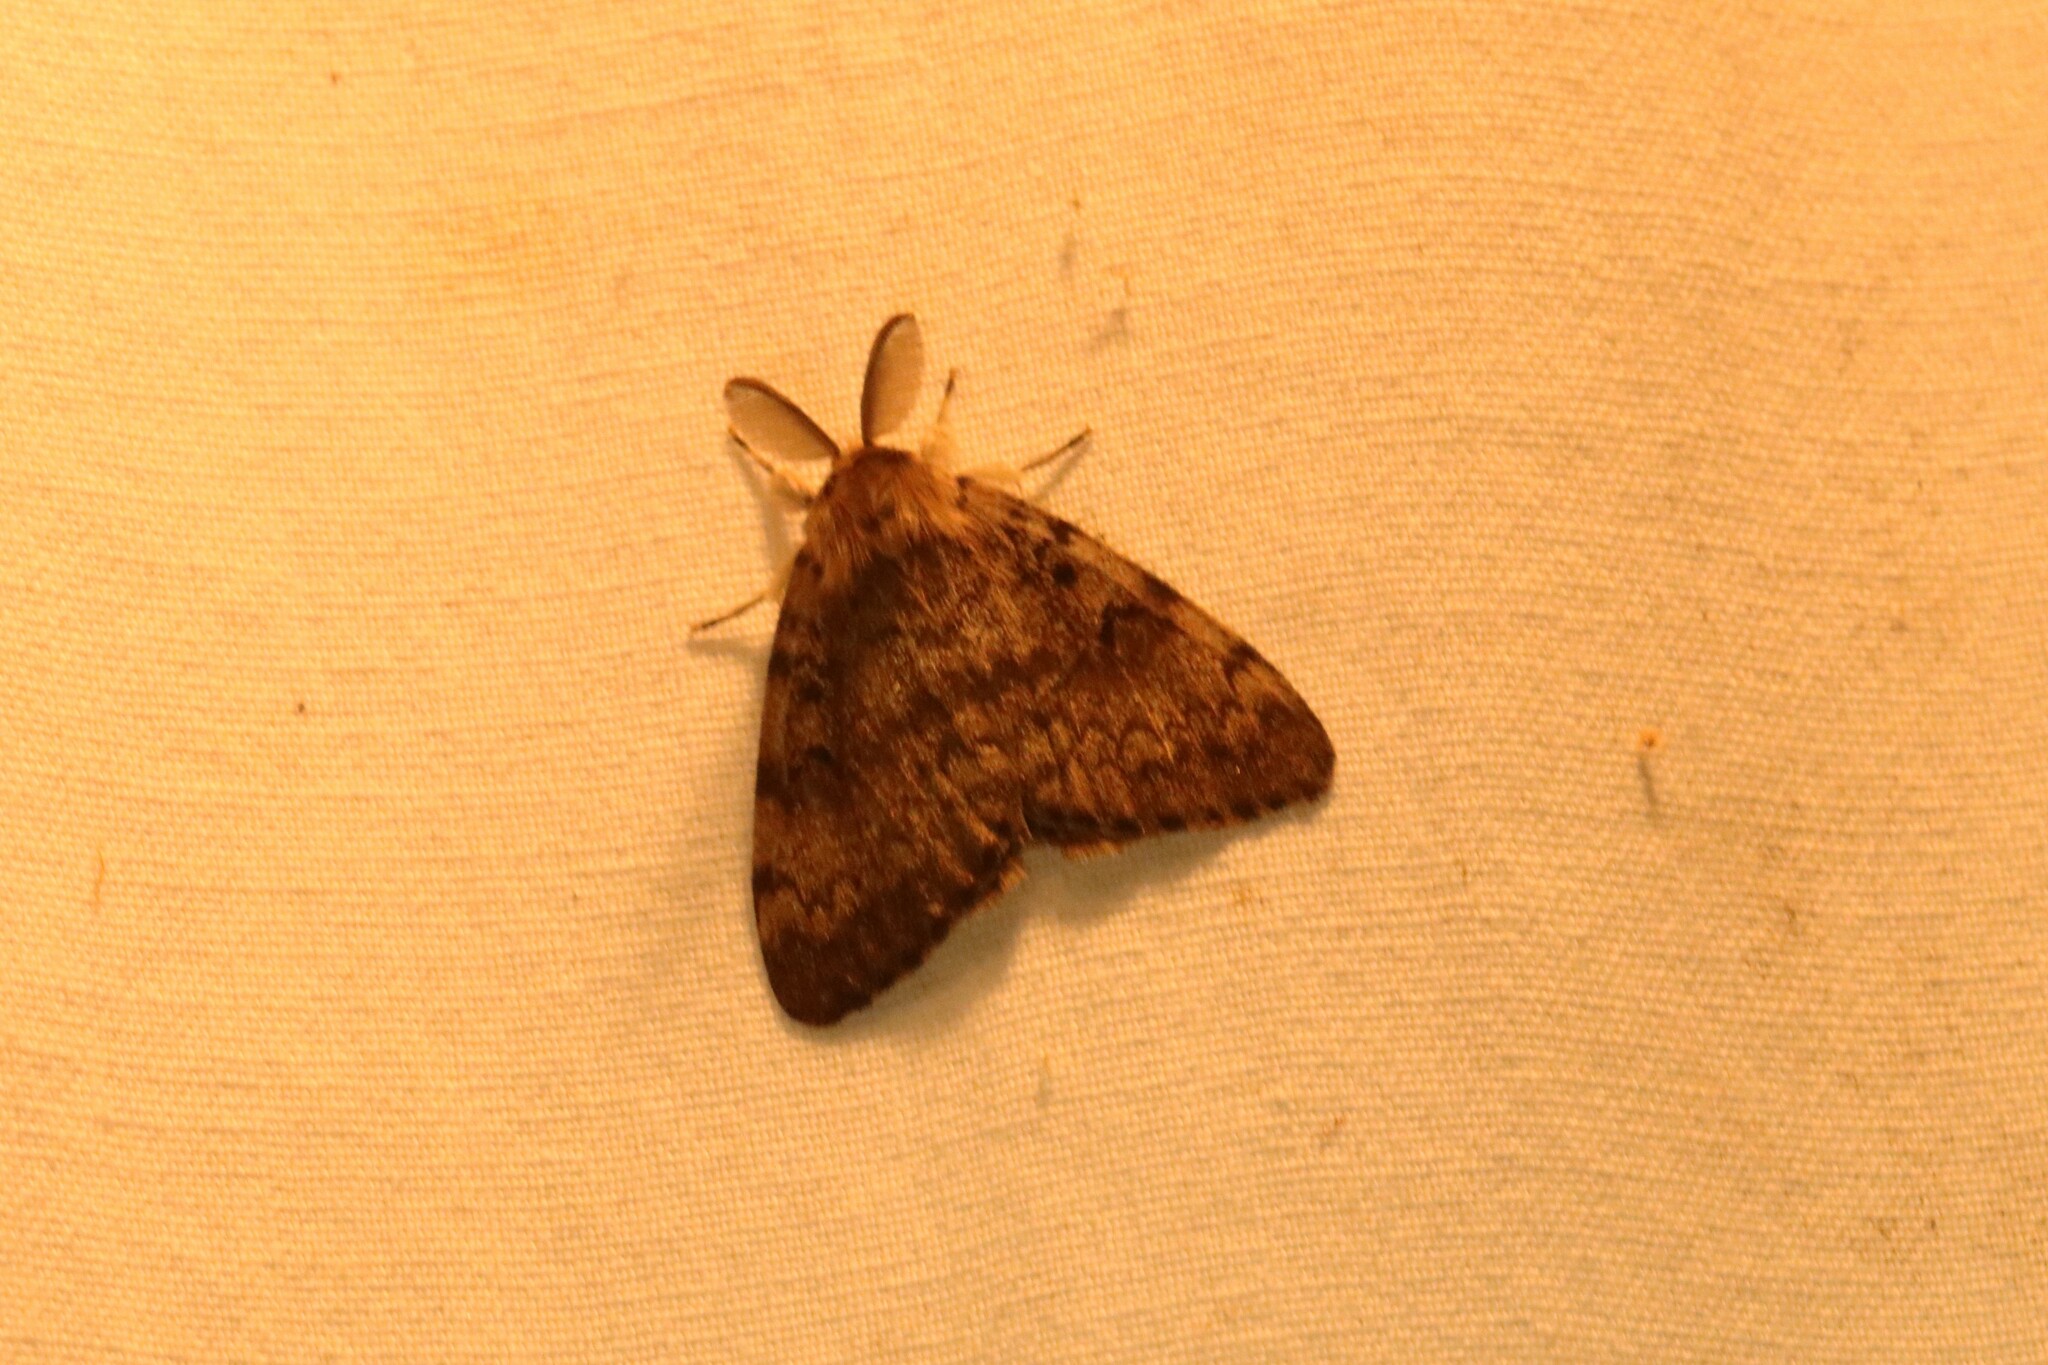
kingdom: Animalia
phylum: Arthropoda
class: Insecta
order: Lepidoptera
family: Erebidae
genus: Lymantria
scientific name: Lymantria dispar
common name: Gypsy moth
